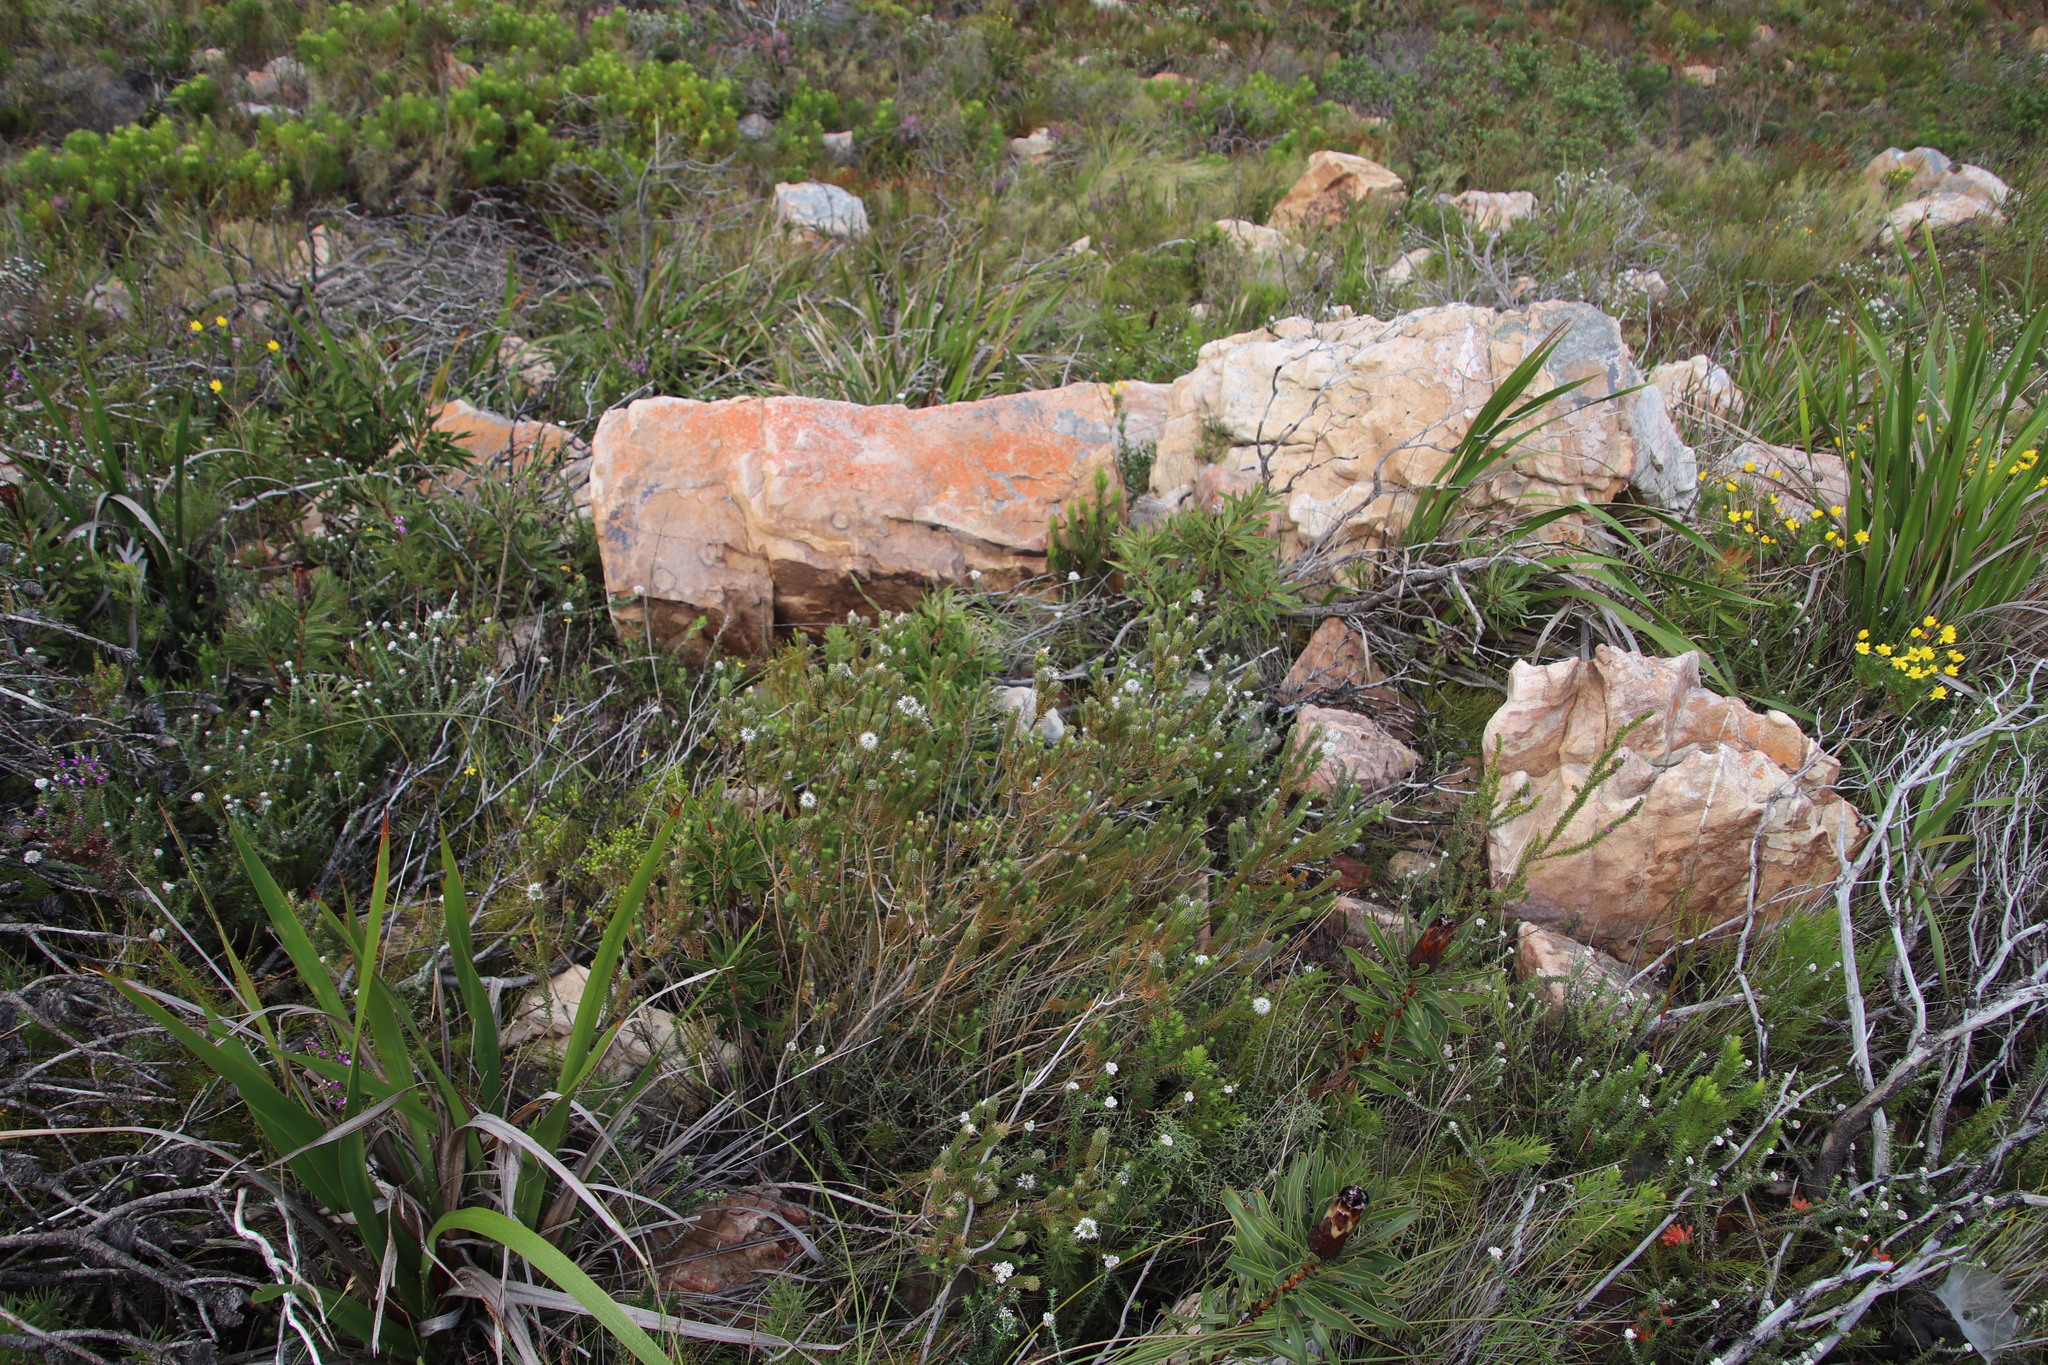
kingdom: Plantae
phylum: Tracheophyta
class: Magnoliopsida
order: Lamiales
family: Stilbaceae
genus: Stilbe
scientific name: Stilbe vestita
